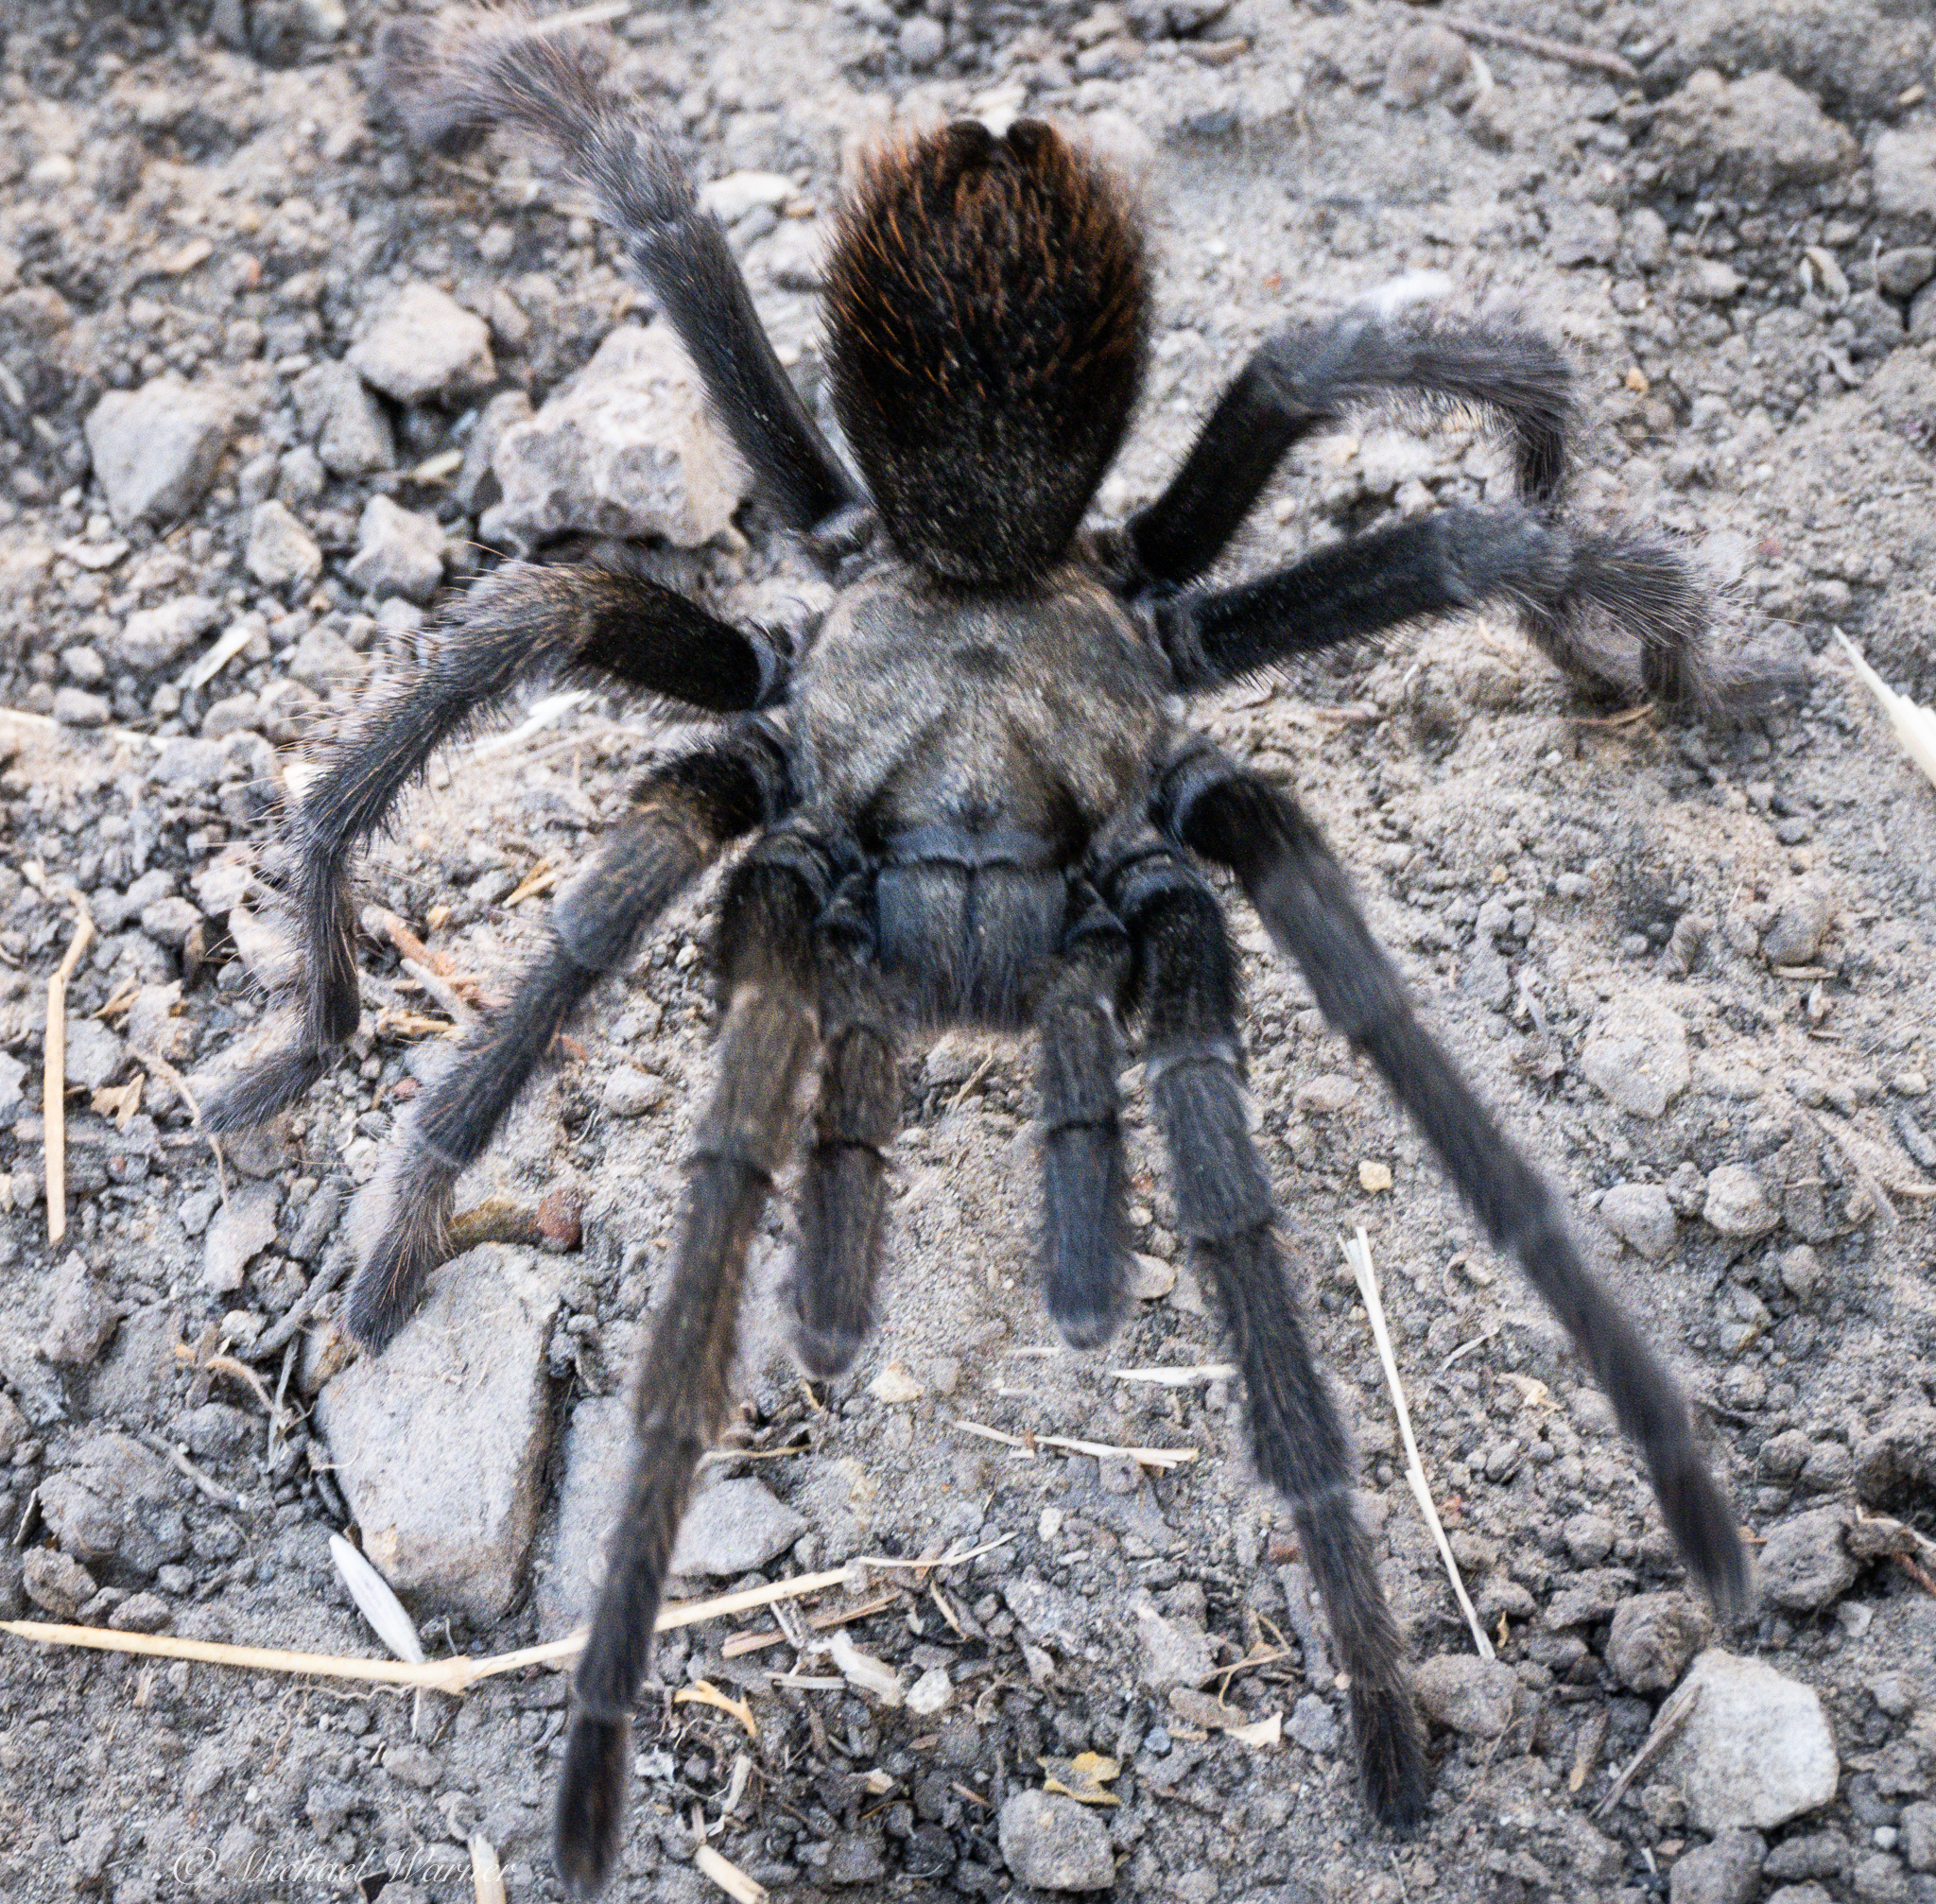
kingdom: Animalia
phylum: Arthropoda
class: Arachnida
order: Araneae
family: Theraphosidae
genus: Aphonopelma
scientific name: Aphonopelma iodius
